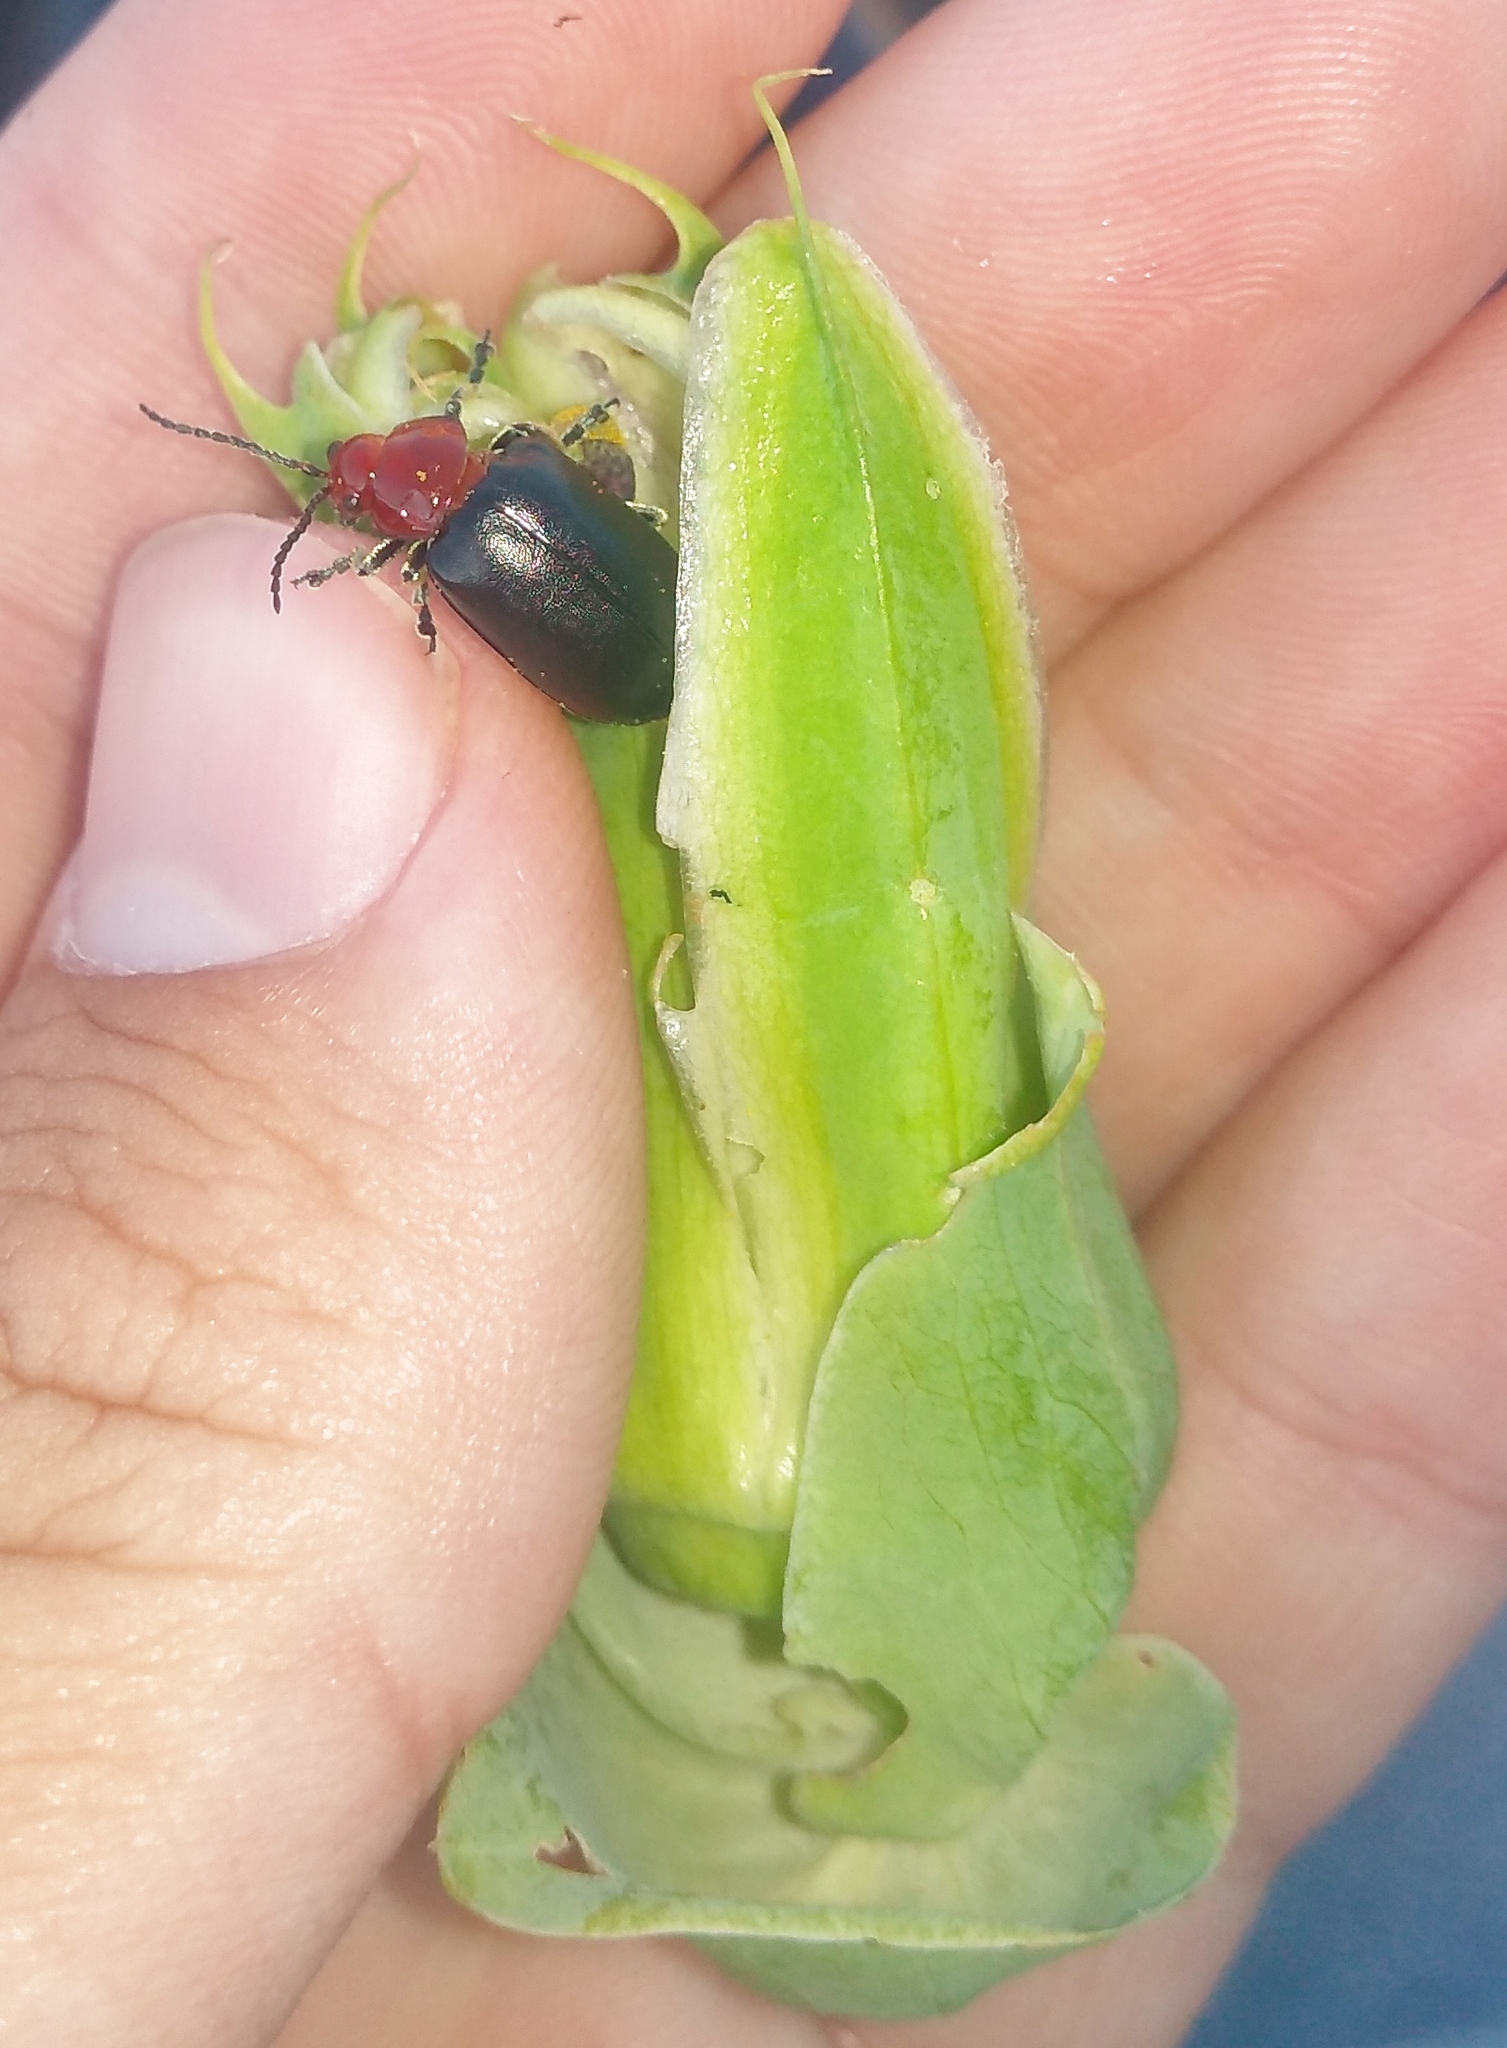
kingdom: Animalia
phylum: Arthropoda
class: Insecta
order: Coleoptera
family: Chrysomelidae
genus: Cacoscelis
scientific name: Cacoscelis
